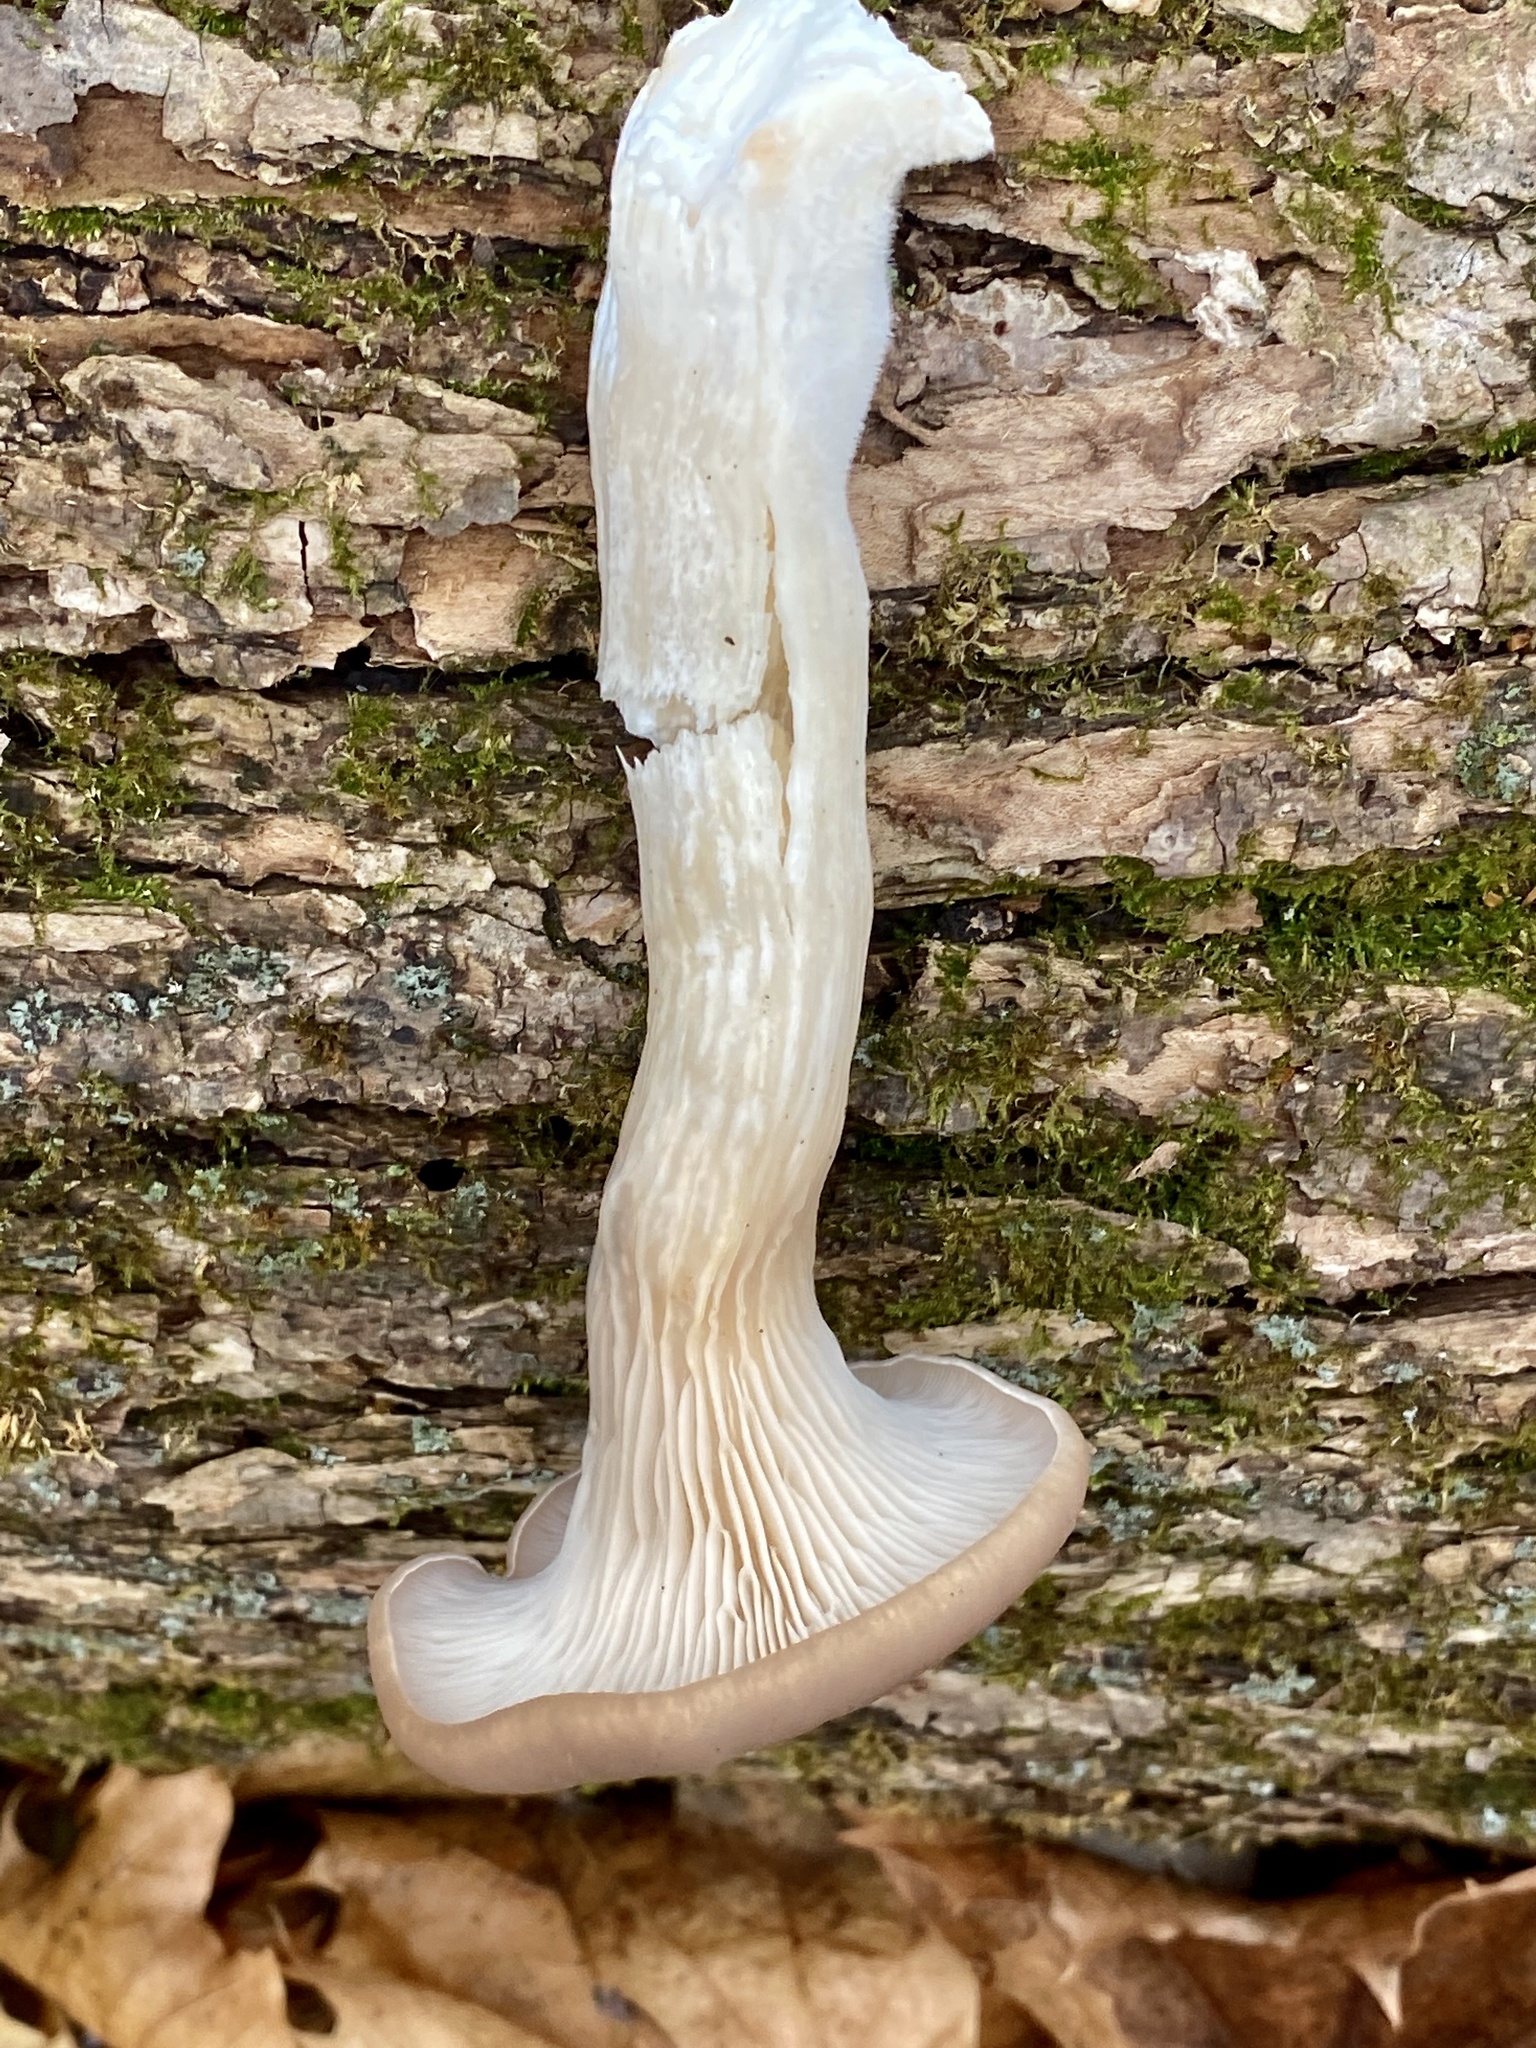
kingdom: Fungi
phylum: Basidiomycota
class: Agaricomycetes
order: Agaricales
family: Pleurotaceae
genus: Pleurotus
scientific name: Pleurotus ostreatus
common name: Oyster mushroom
